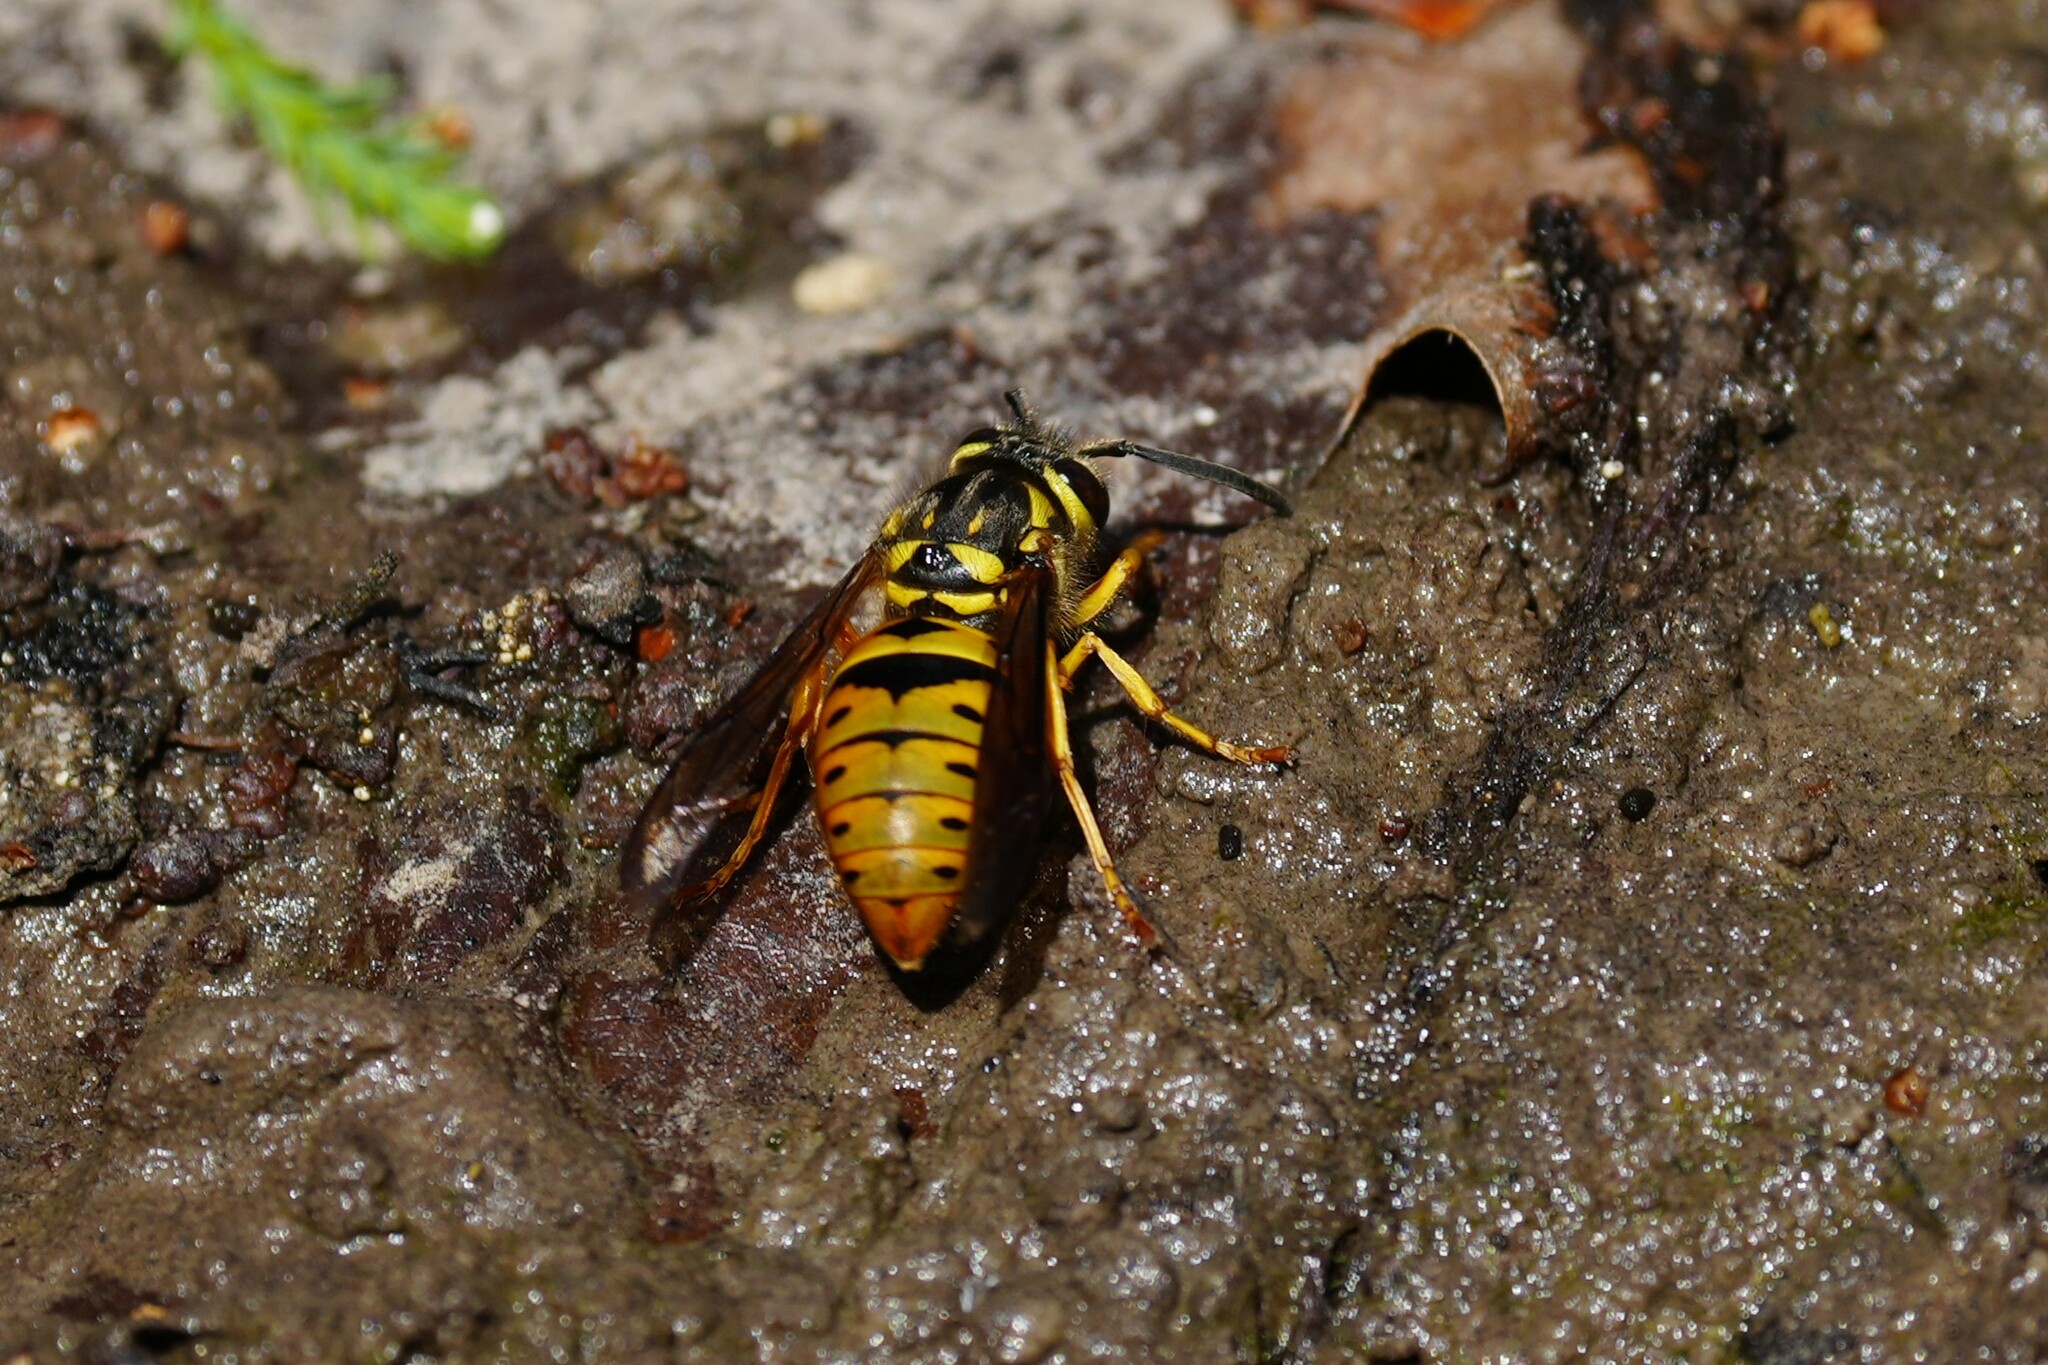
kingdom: Animalia
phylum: Arthropoda
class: Insecta
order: Hymenoptera
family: Vespidae
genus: Vespula
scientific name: Vespula maculifrons
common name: Eastern yellowjacket
